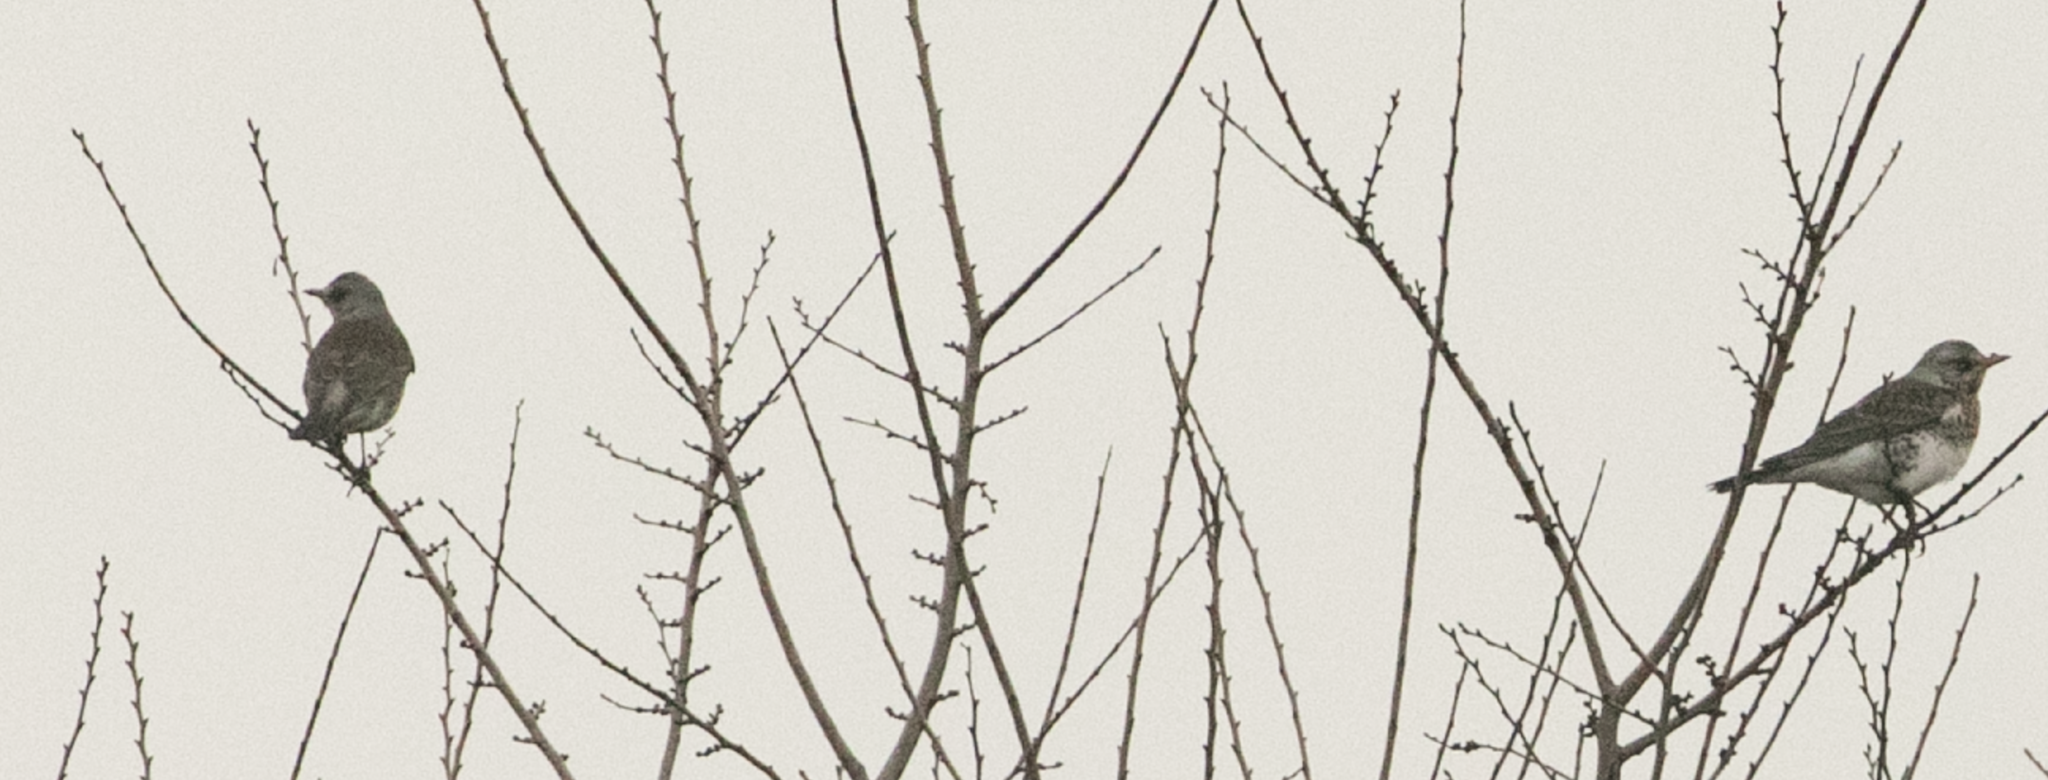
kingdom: Animalia
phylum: Chordata
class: Aves
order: Passeriformes
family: Turdidae
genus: Turdus
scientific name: Turdus pilaris
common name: Fieldfare
